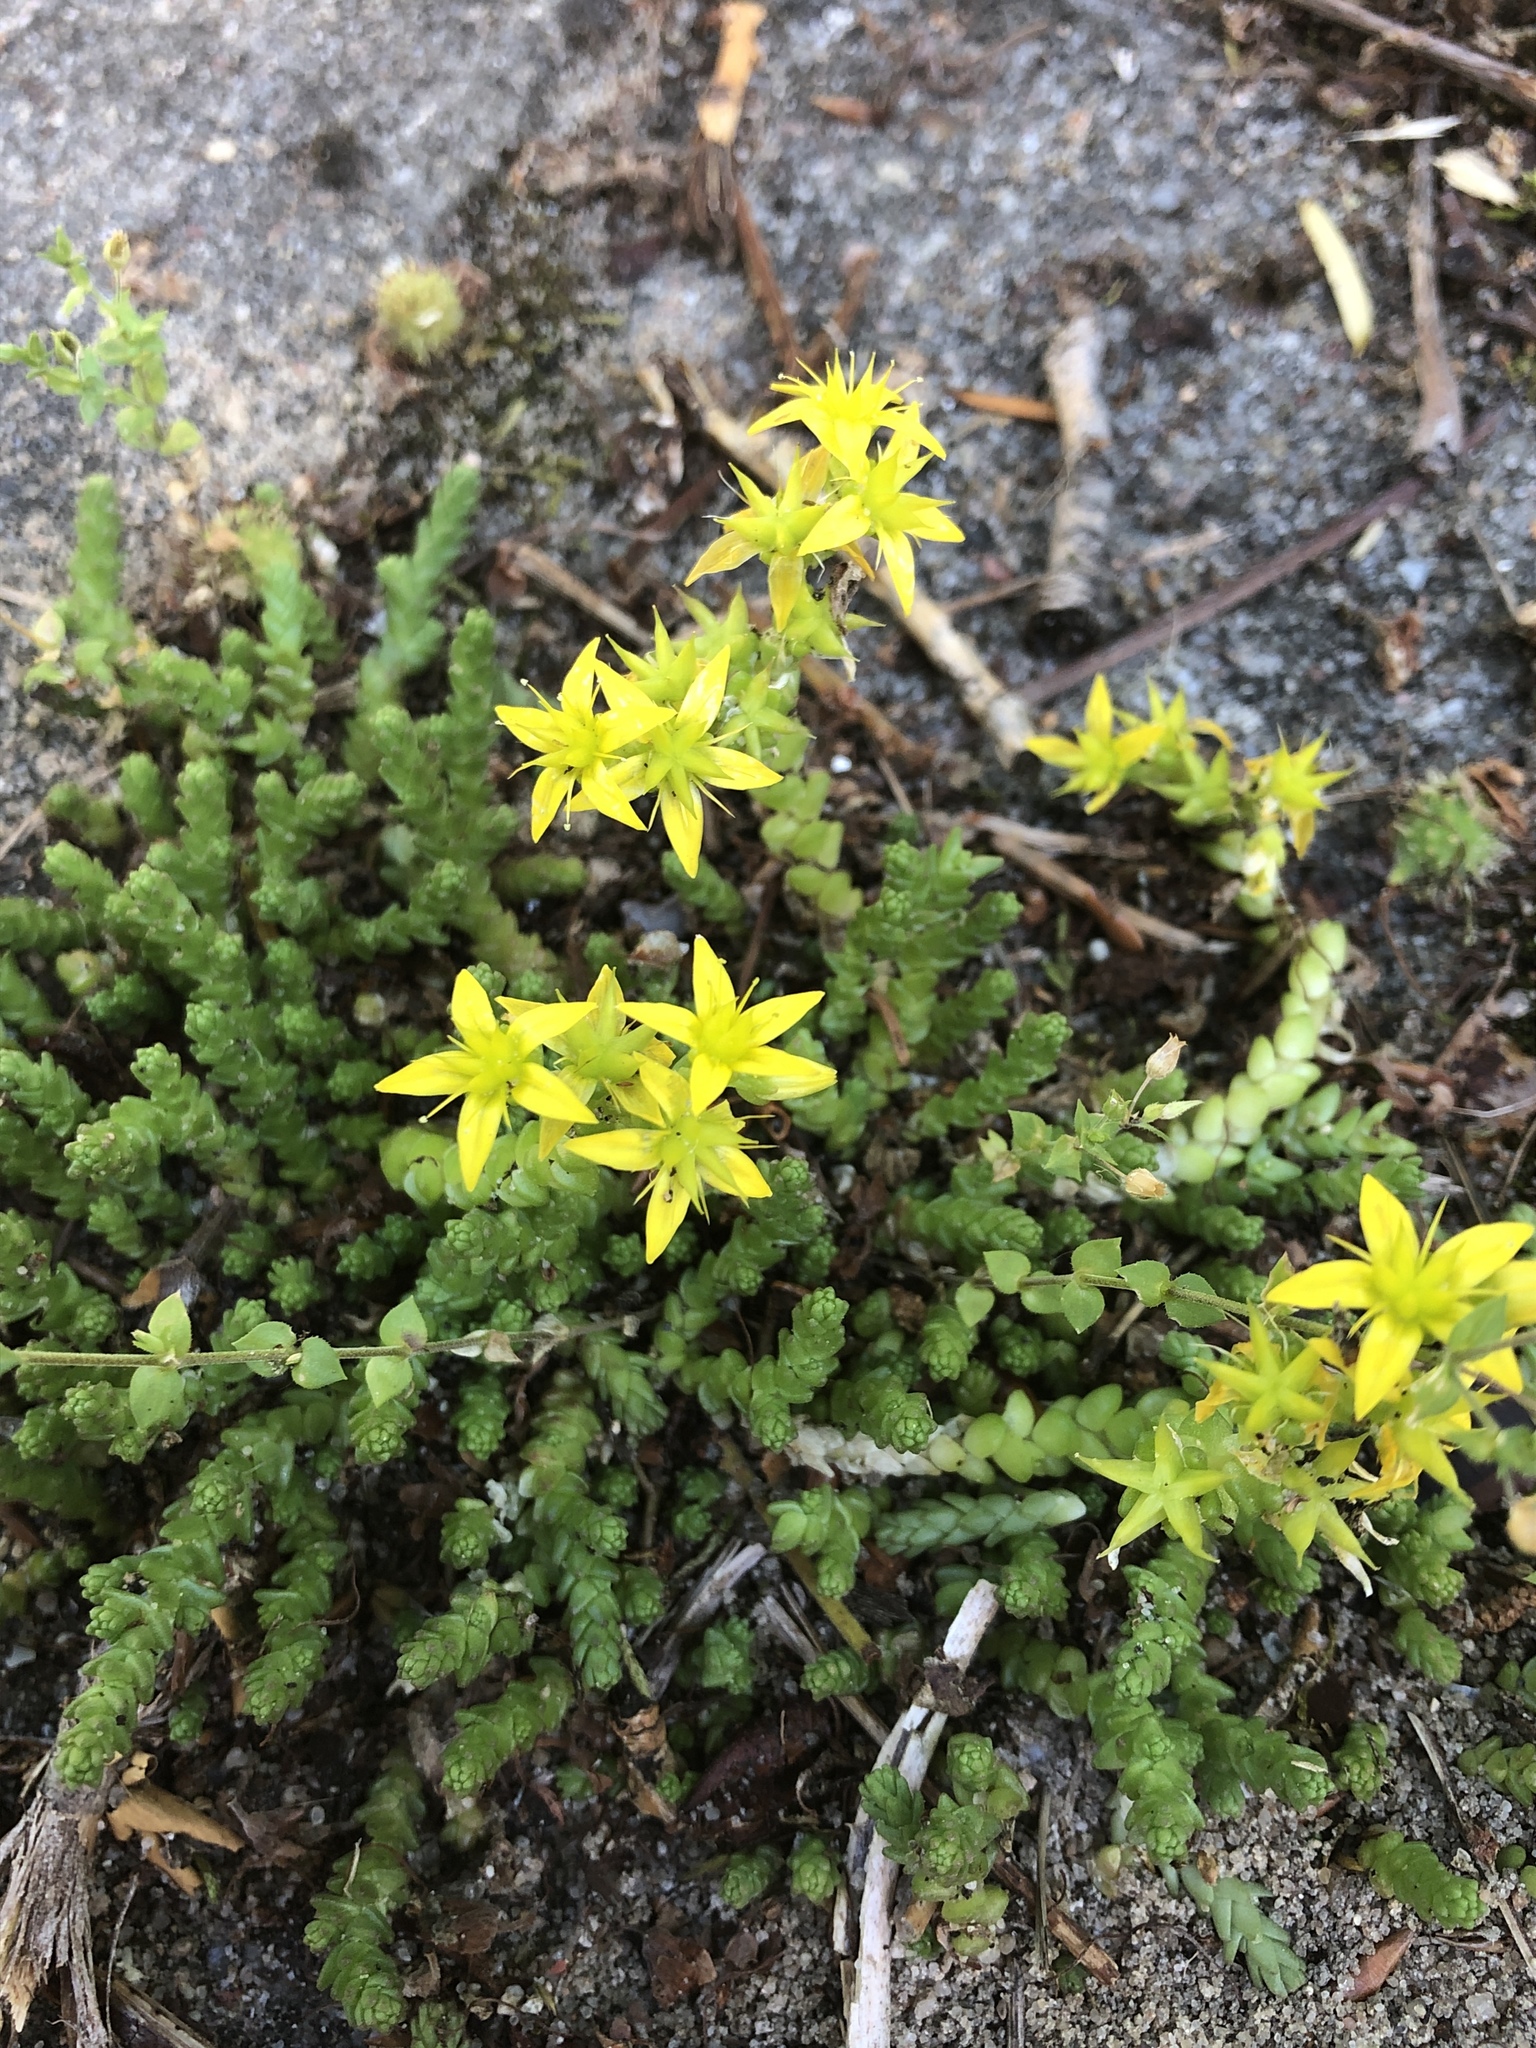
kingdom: Plantae
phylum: Tracheophyta
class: Magnoliopsida
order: Saxifragales
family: Crassulaceae
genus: Sedum
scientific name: Sedum acre
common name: Biting stonecrop
